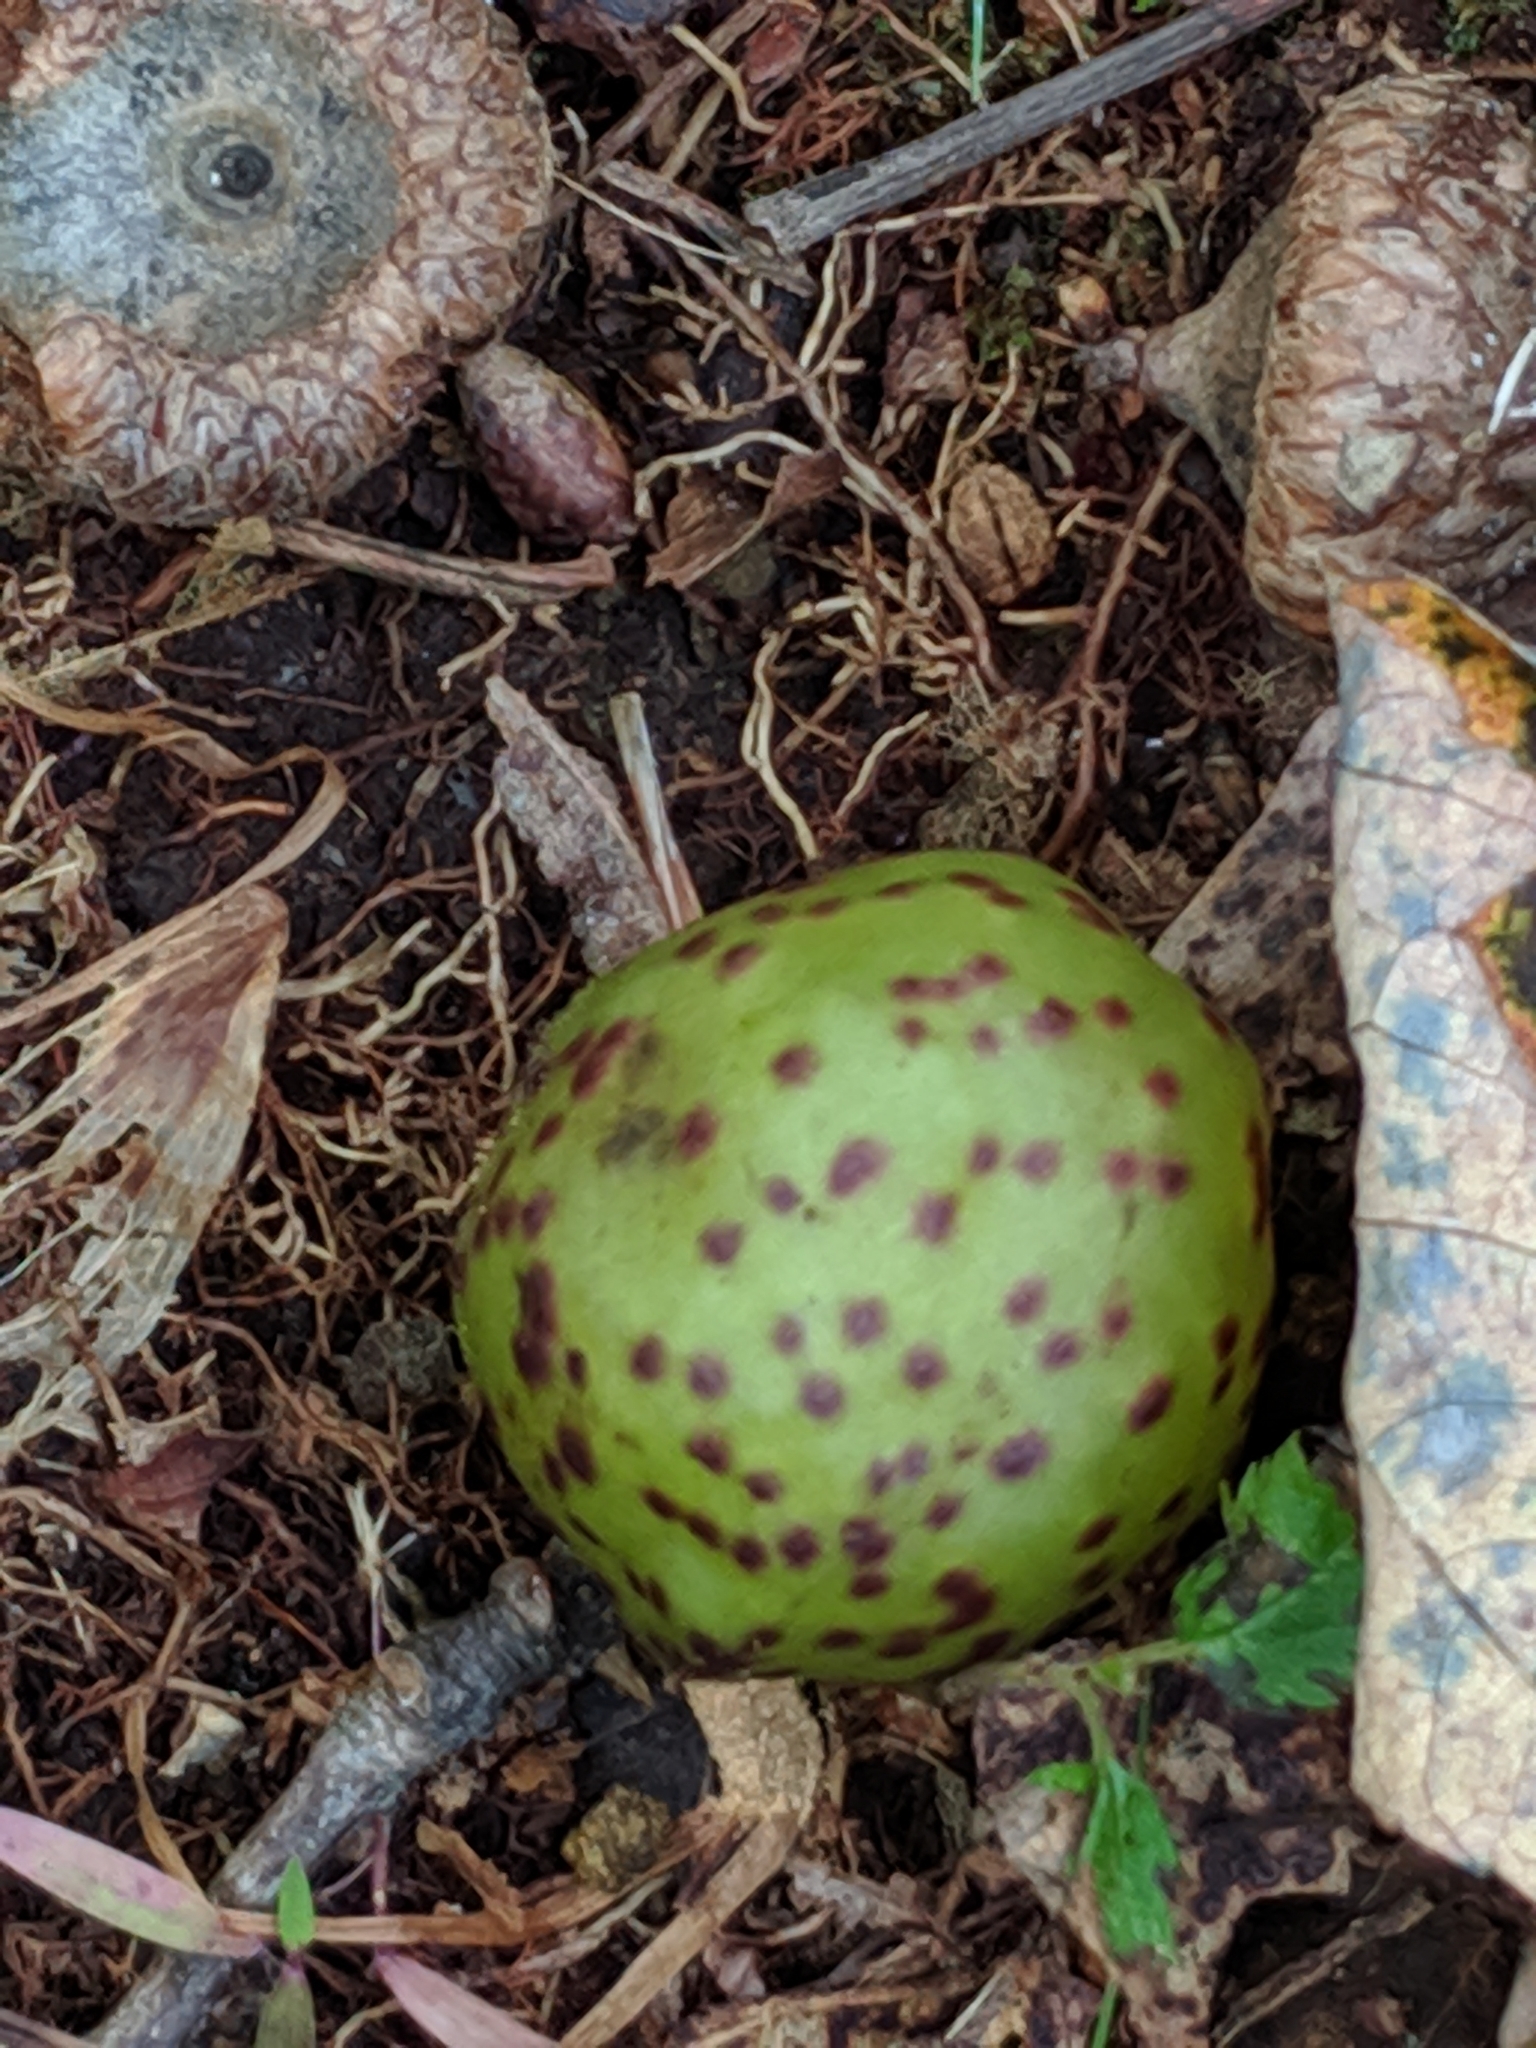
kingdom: Animalia
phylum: Arthropoda
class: Insecta
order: Hymenoptera
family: Cynipidae
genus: Amphibolips
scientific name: Amphibolips
